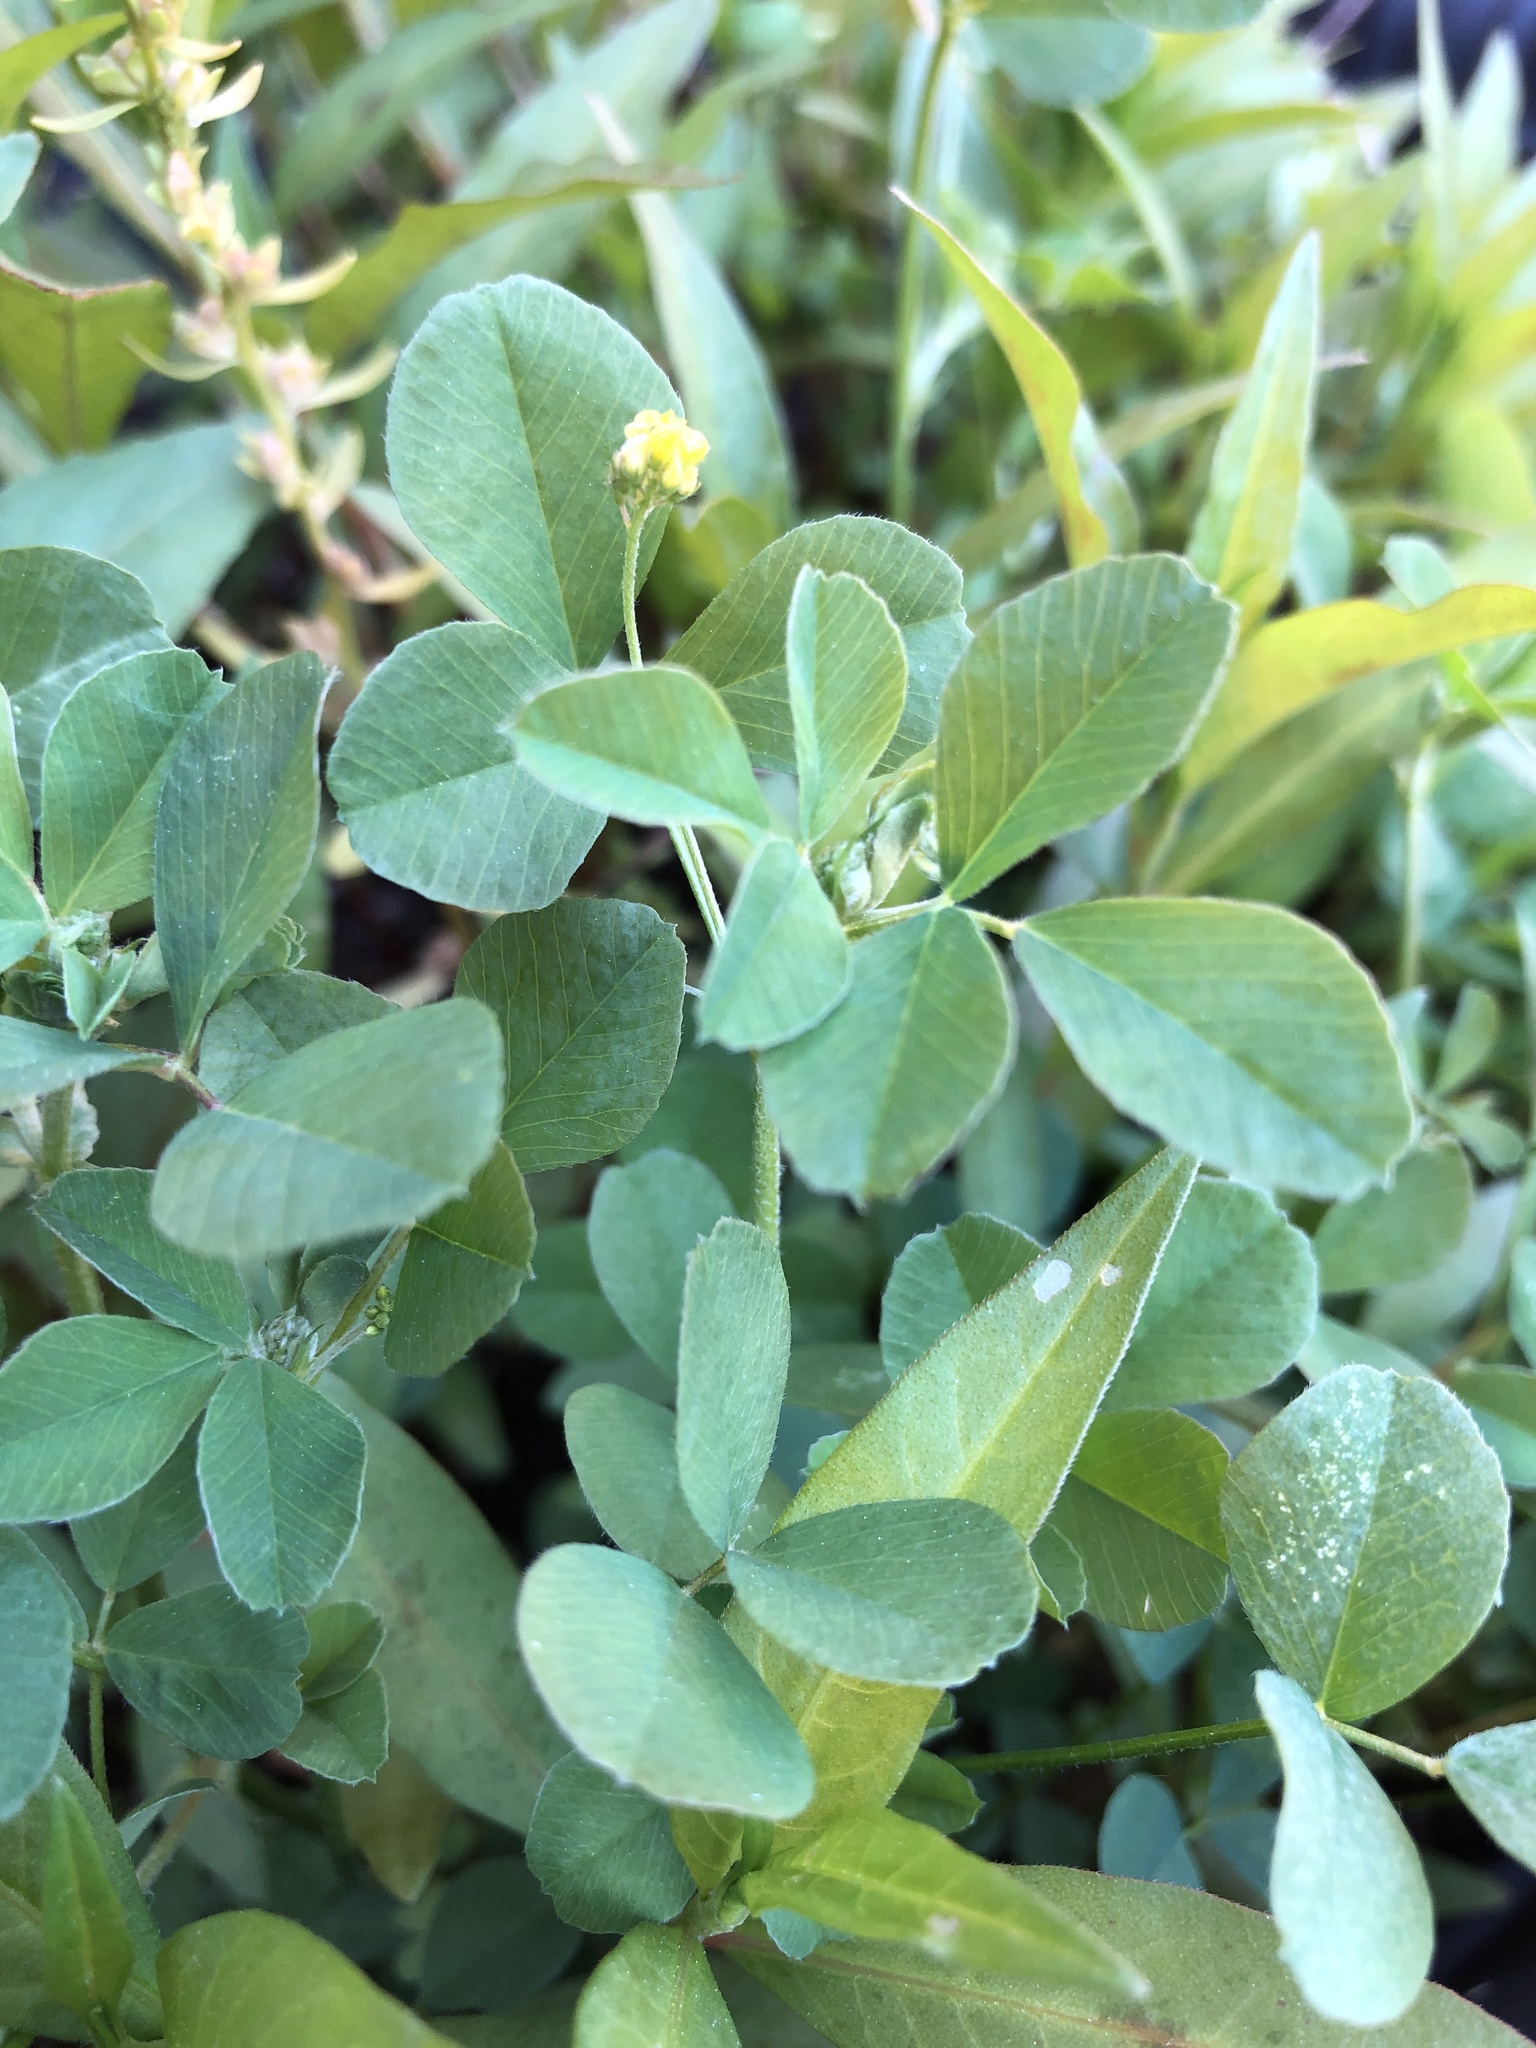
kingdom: Plantae
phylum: Tracheophyta
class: Magnoliopsida
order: Fabales
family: Fabaceae
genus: Medicago
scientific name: Medicago lupulina
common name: Black medick
